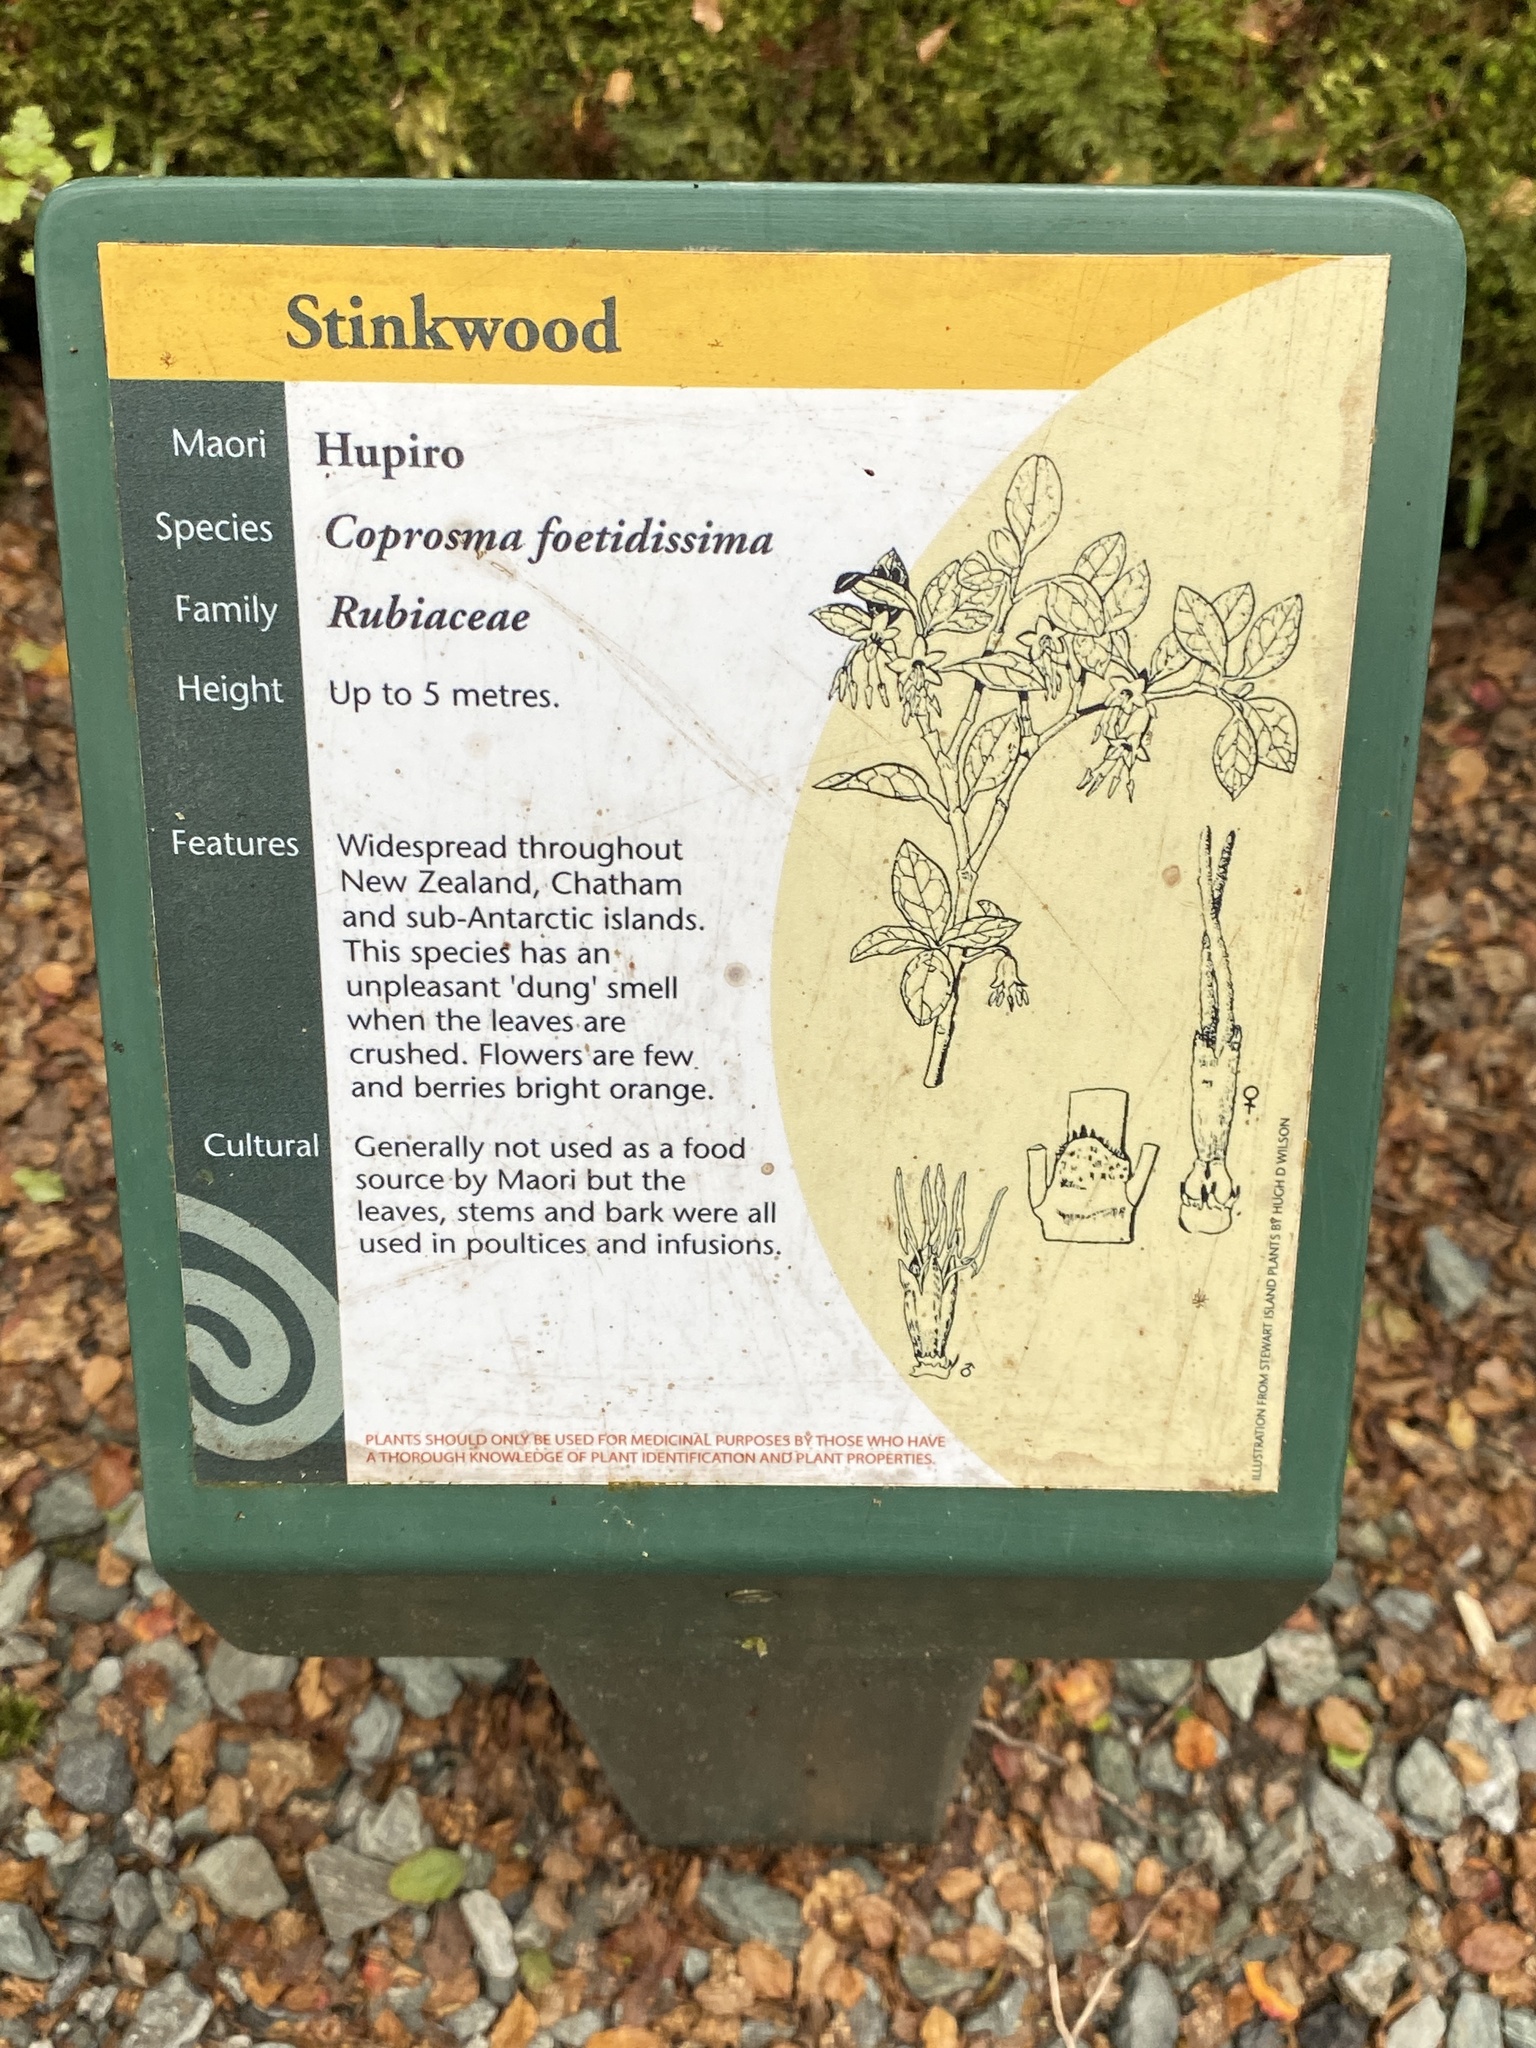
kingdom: Plantae
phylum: Tracheophyta
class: Magnoliopsida
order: Gentianales
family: Rubiaceae
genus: Coprosma
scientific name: Coprosma foetidissima
